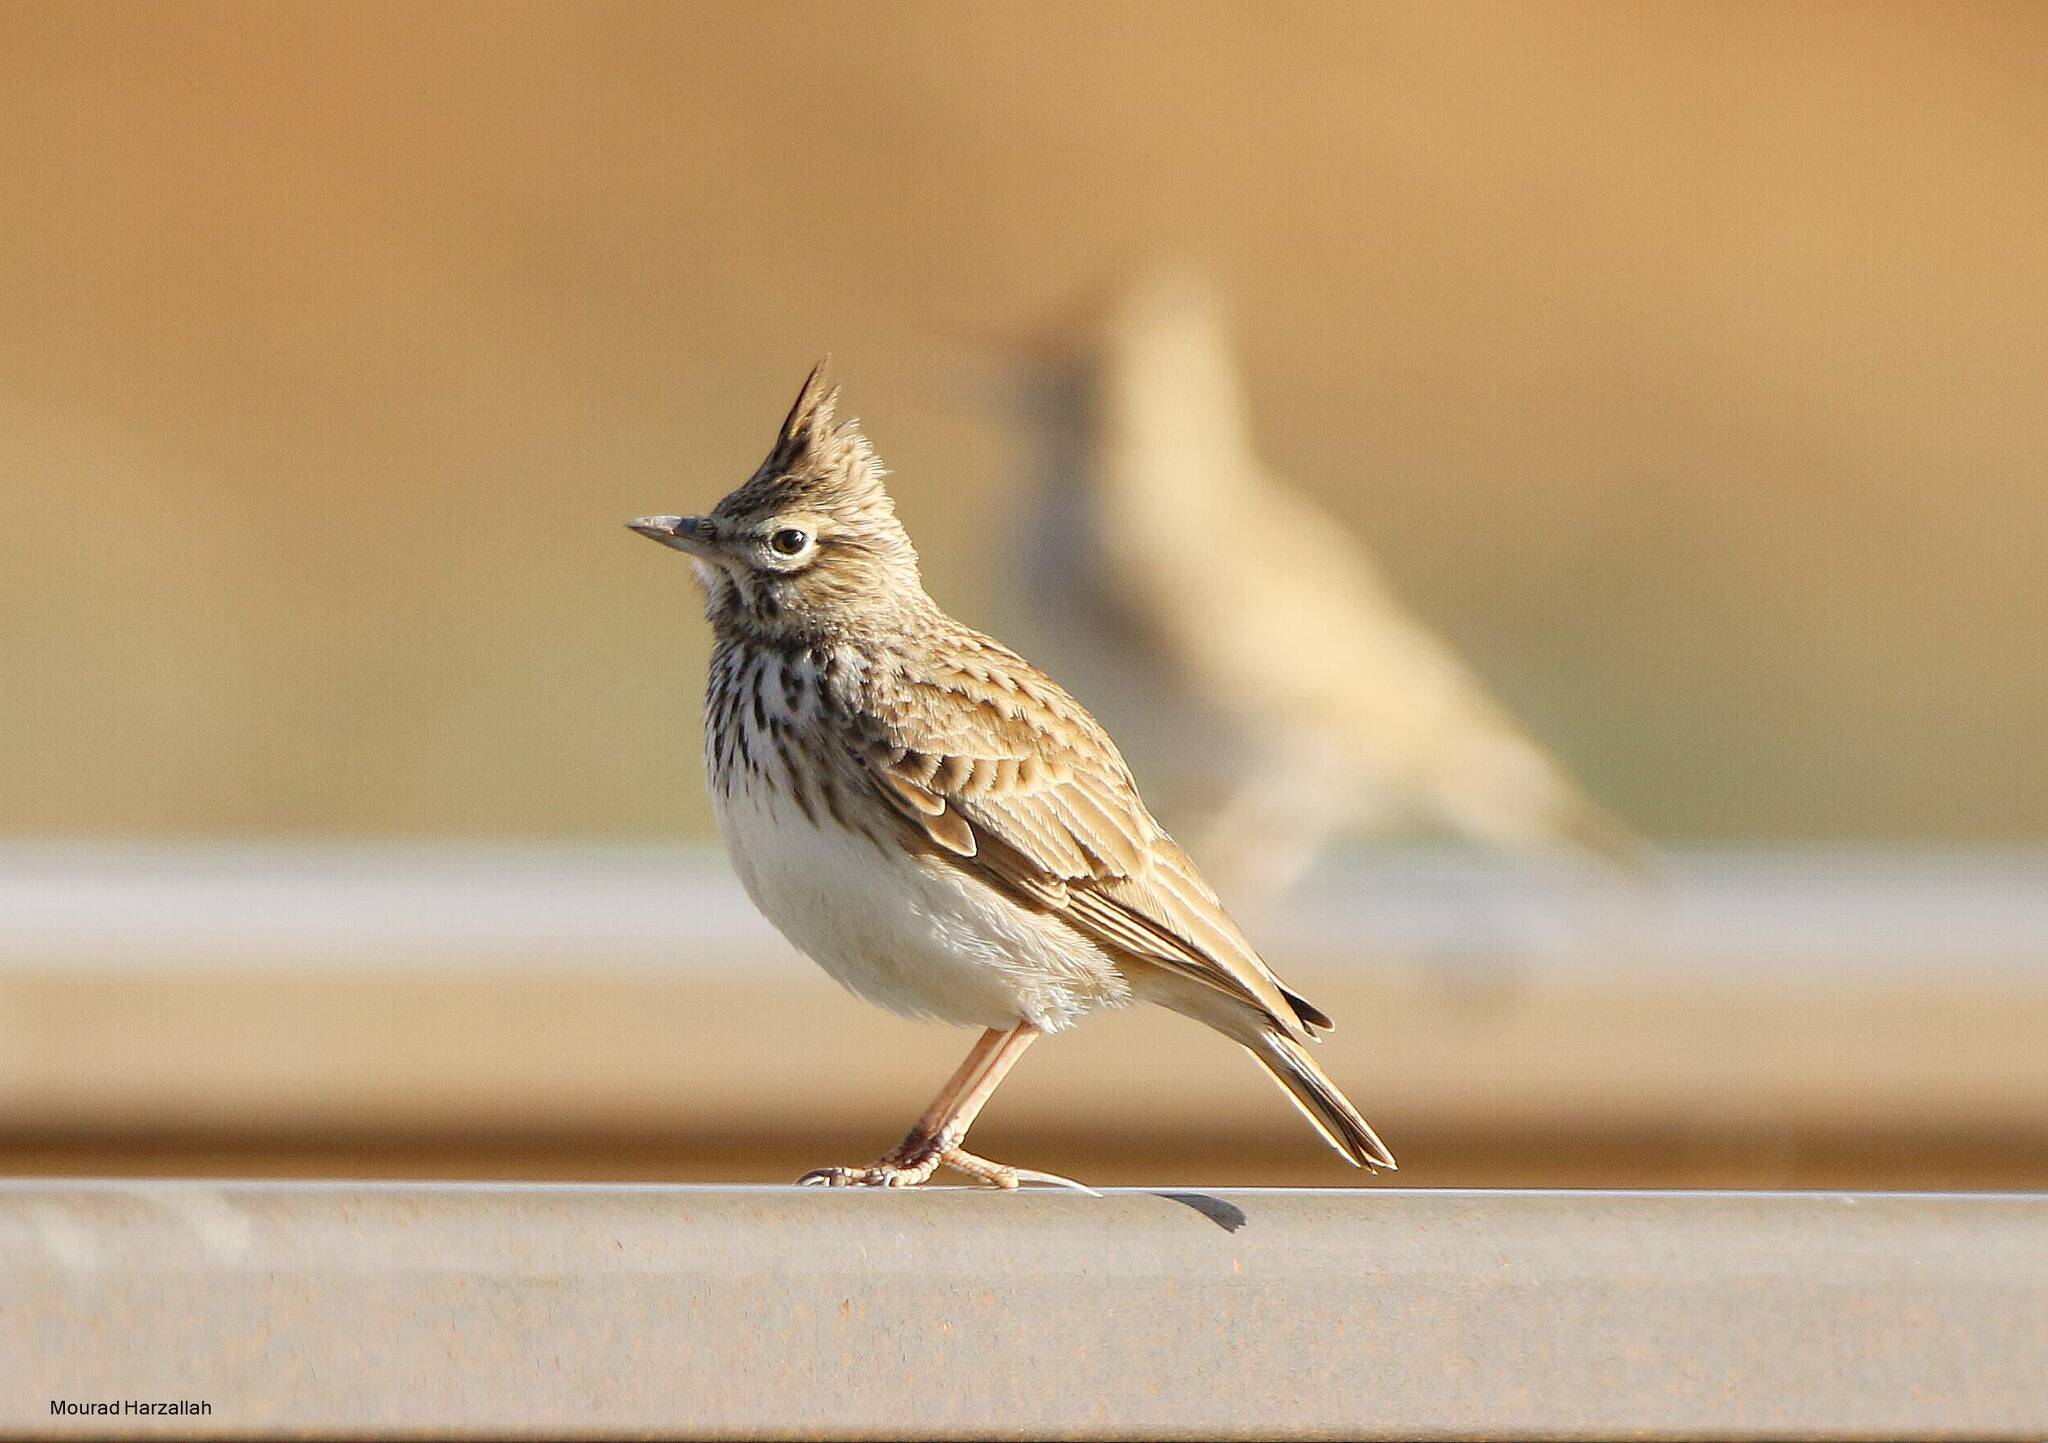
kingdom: Animalia
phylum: Chordata
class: Aves
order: Passeriformes
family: Alaudidae
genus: Galerida
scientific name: Galerida theklae
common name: Thekla lark
